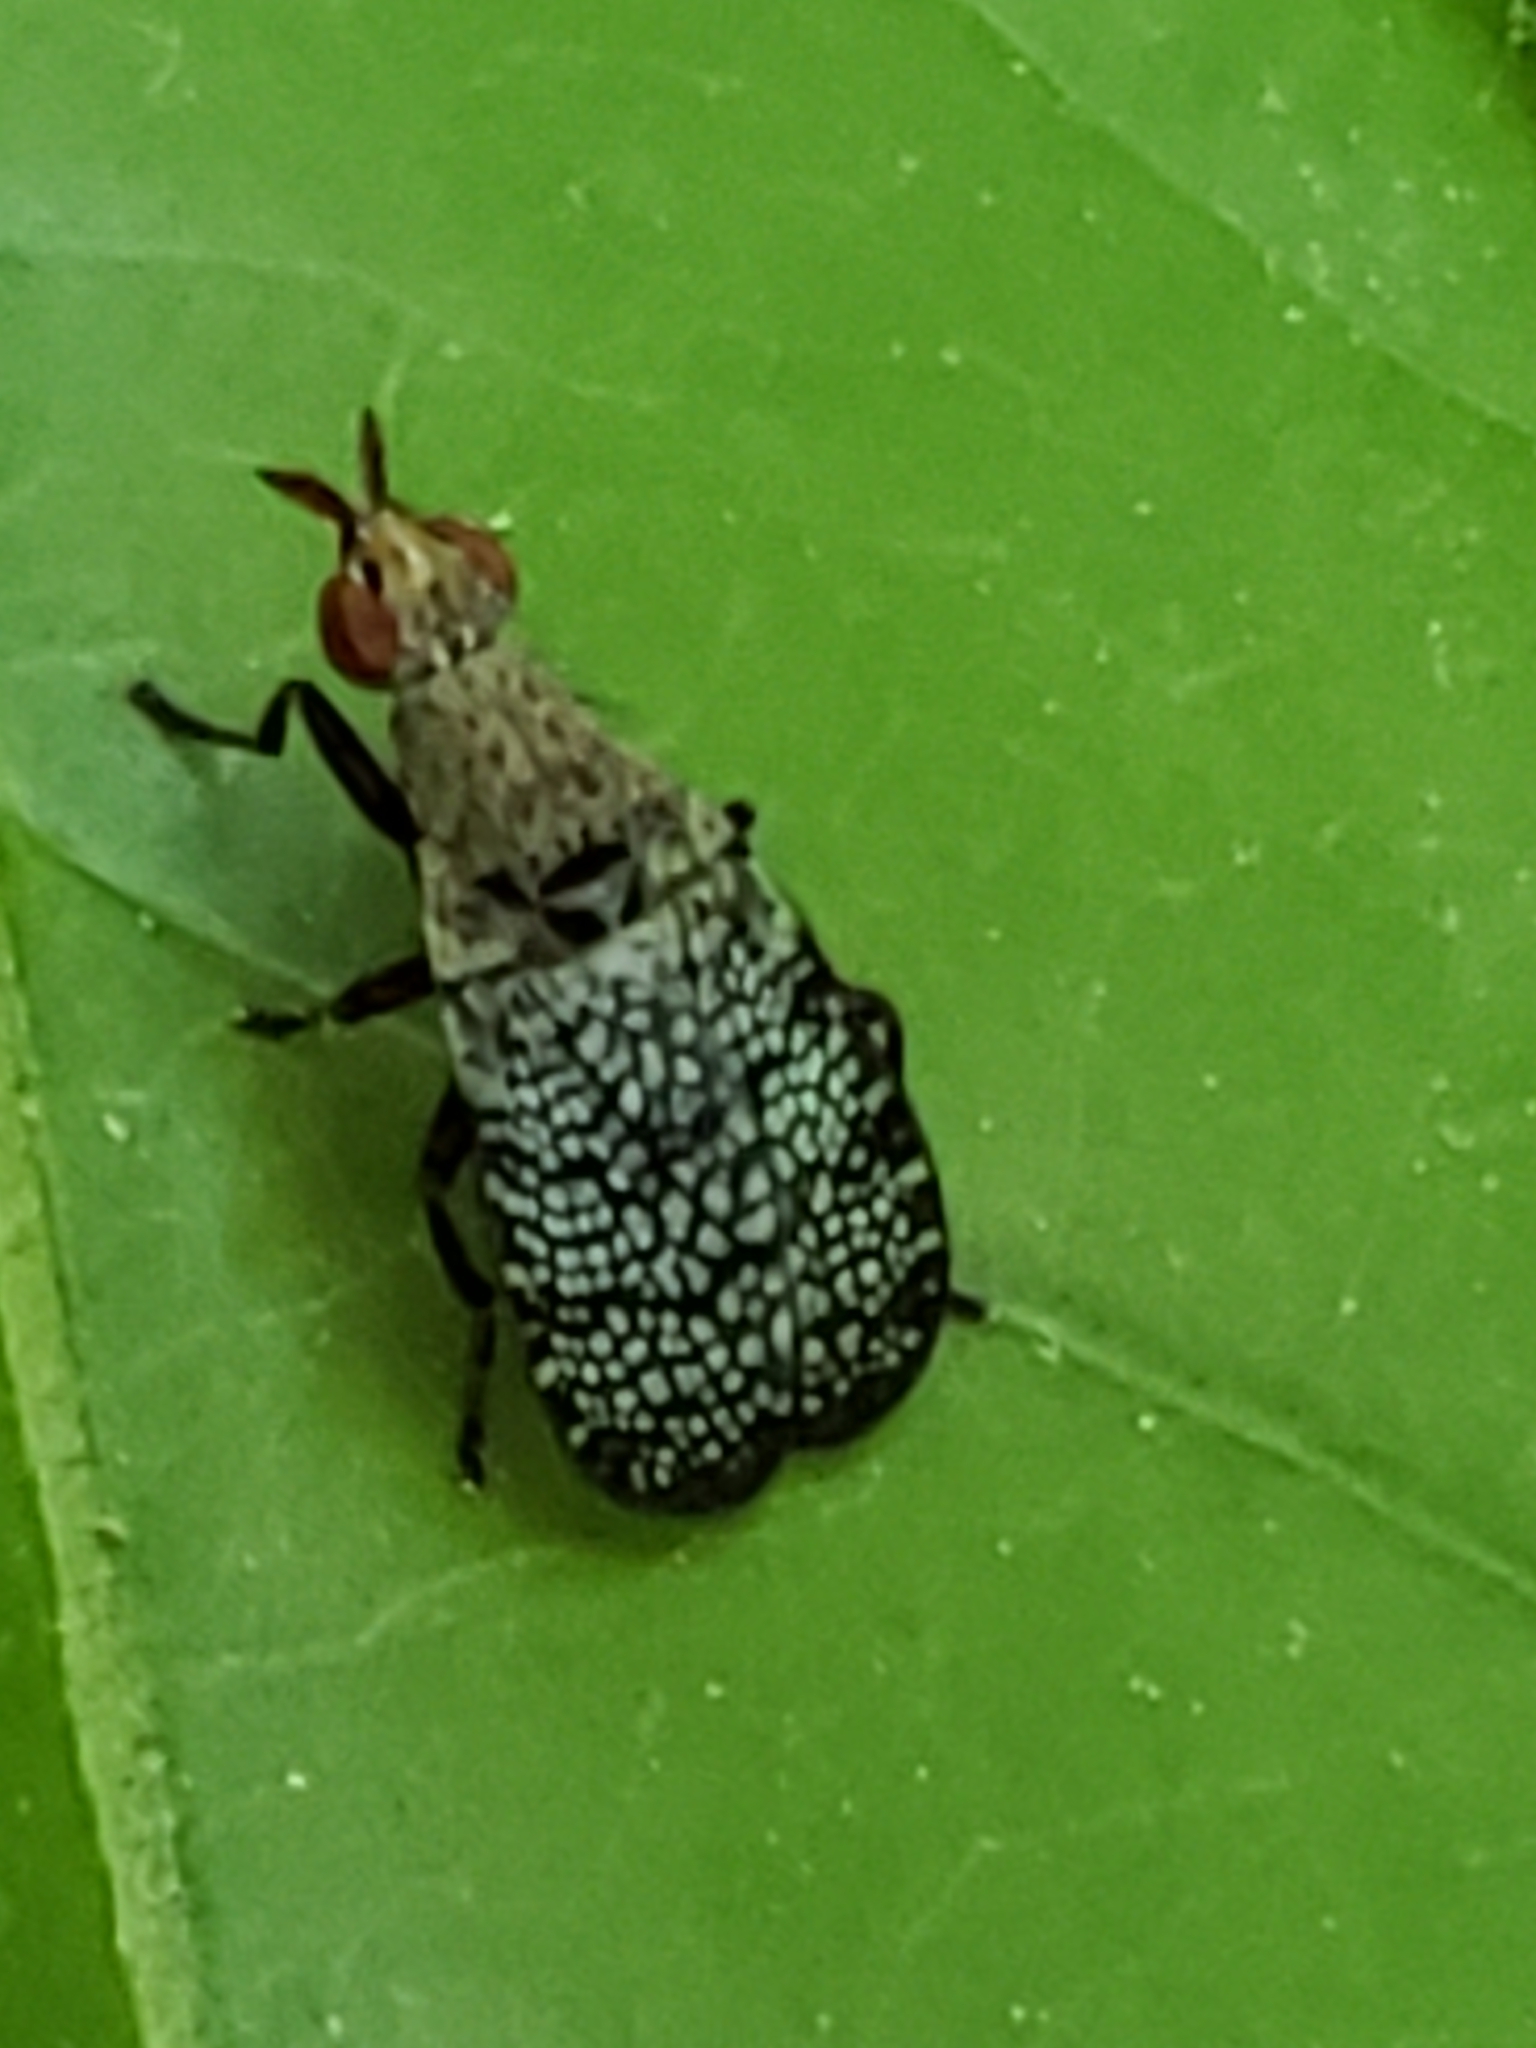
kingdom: Animalia
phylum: Arthropoda
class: Insecta
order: Diptera
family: Sciomyzidae
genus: Euthycera
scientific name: Euthycera flavescens
